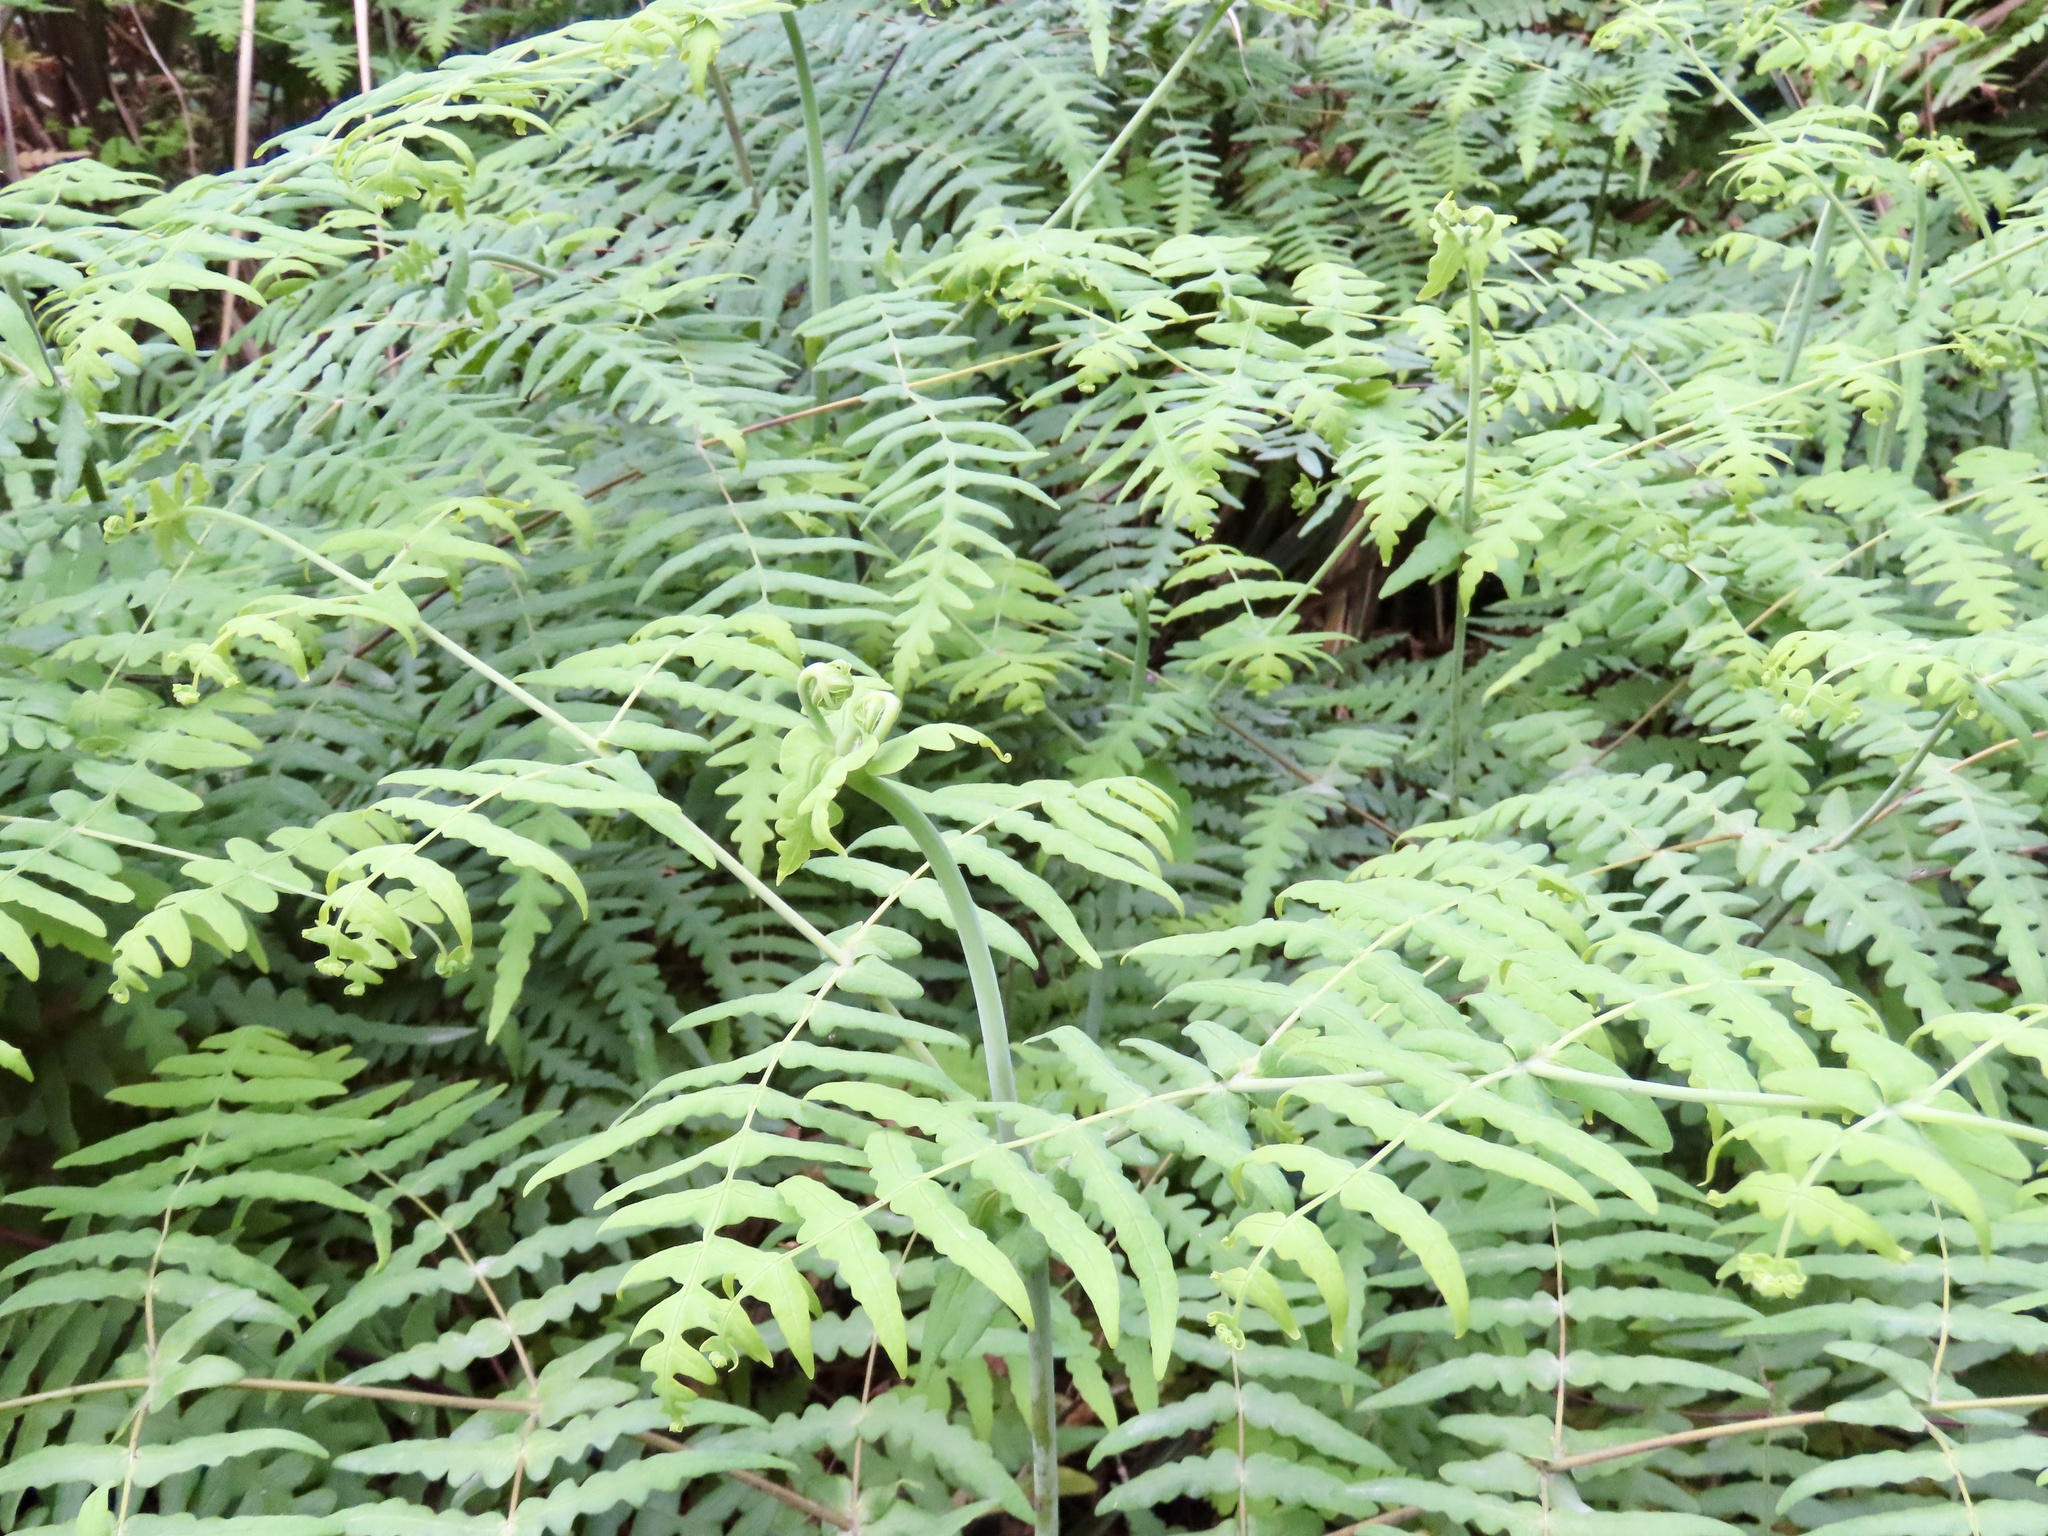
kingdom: Plantae
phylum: Tracheophyta
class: Polypodiopsida
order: Polypodiales
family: Dennstaedtiaceae
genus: Histiopteris
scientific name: Histiopteris incisa
